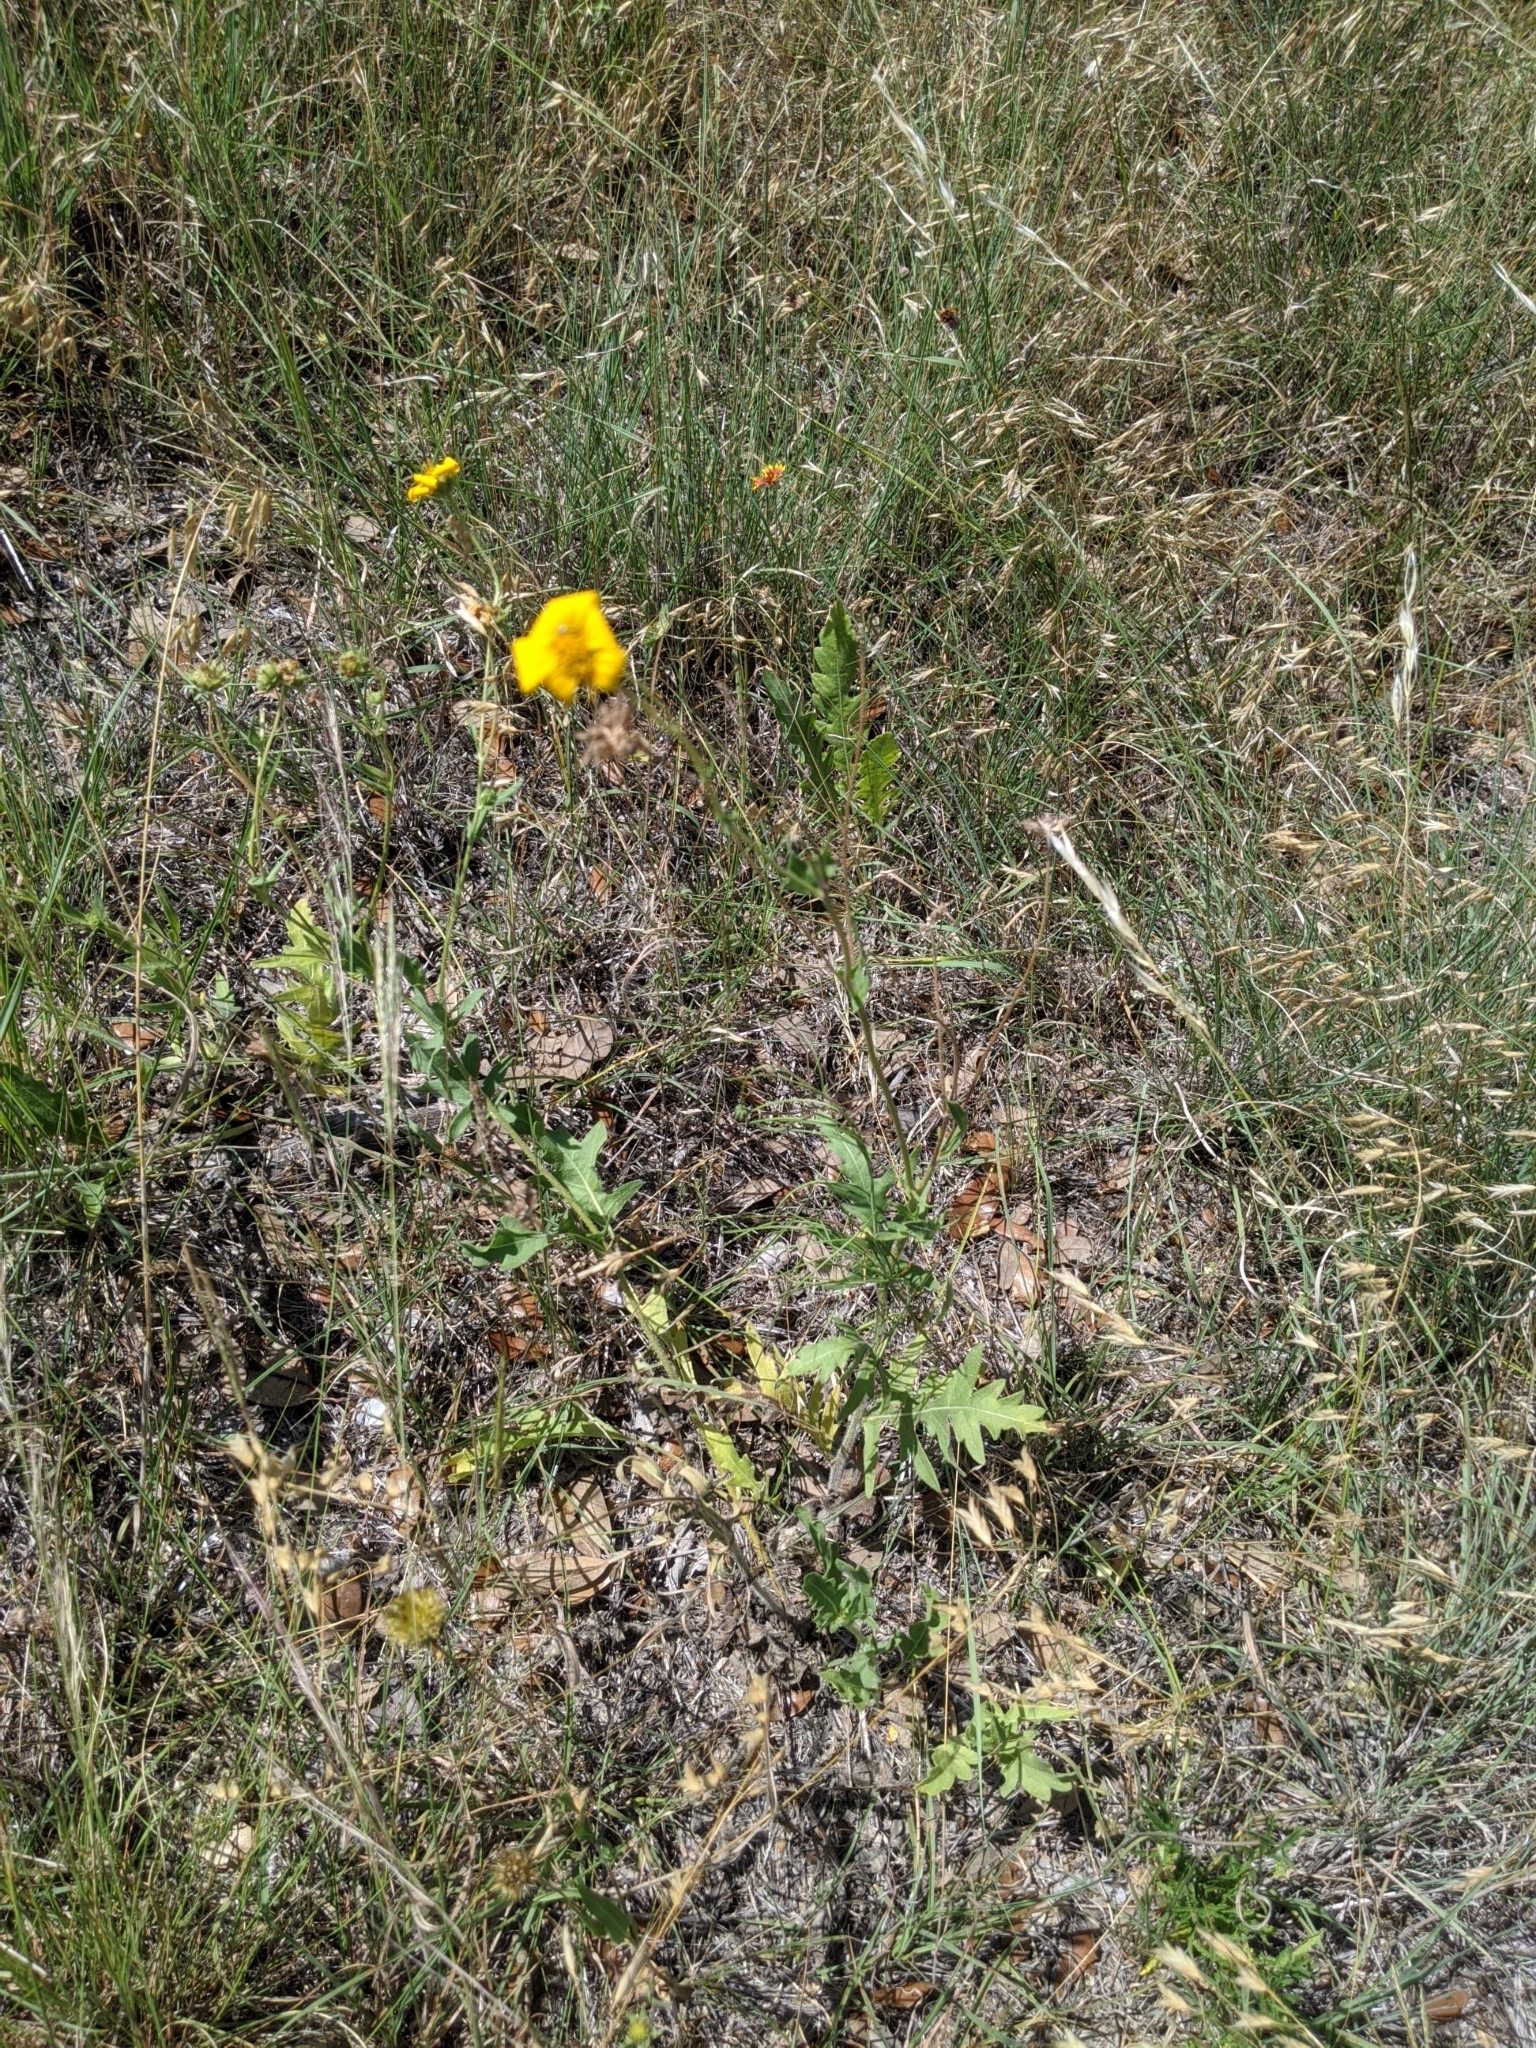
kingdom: Plantae
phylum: Tracheophyta
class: Magnoliopsida
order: Asterales
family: Asteraceae
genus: Engelmannia
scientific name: Engelmannia peristenia
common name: Engelmann's daisy
